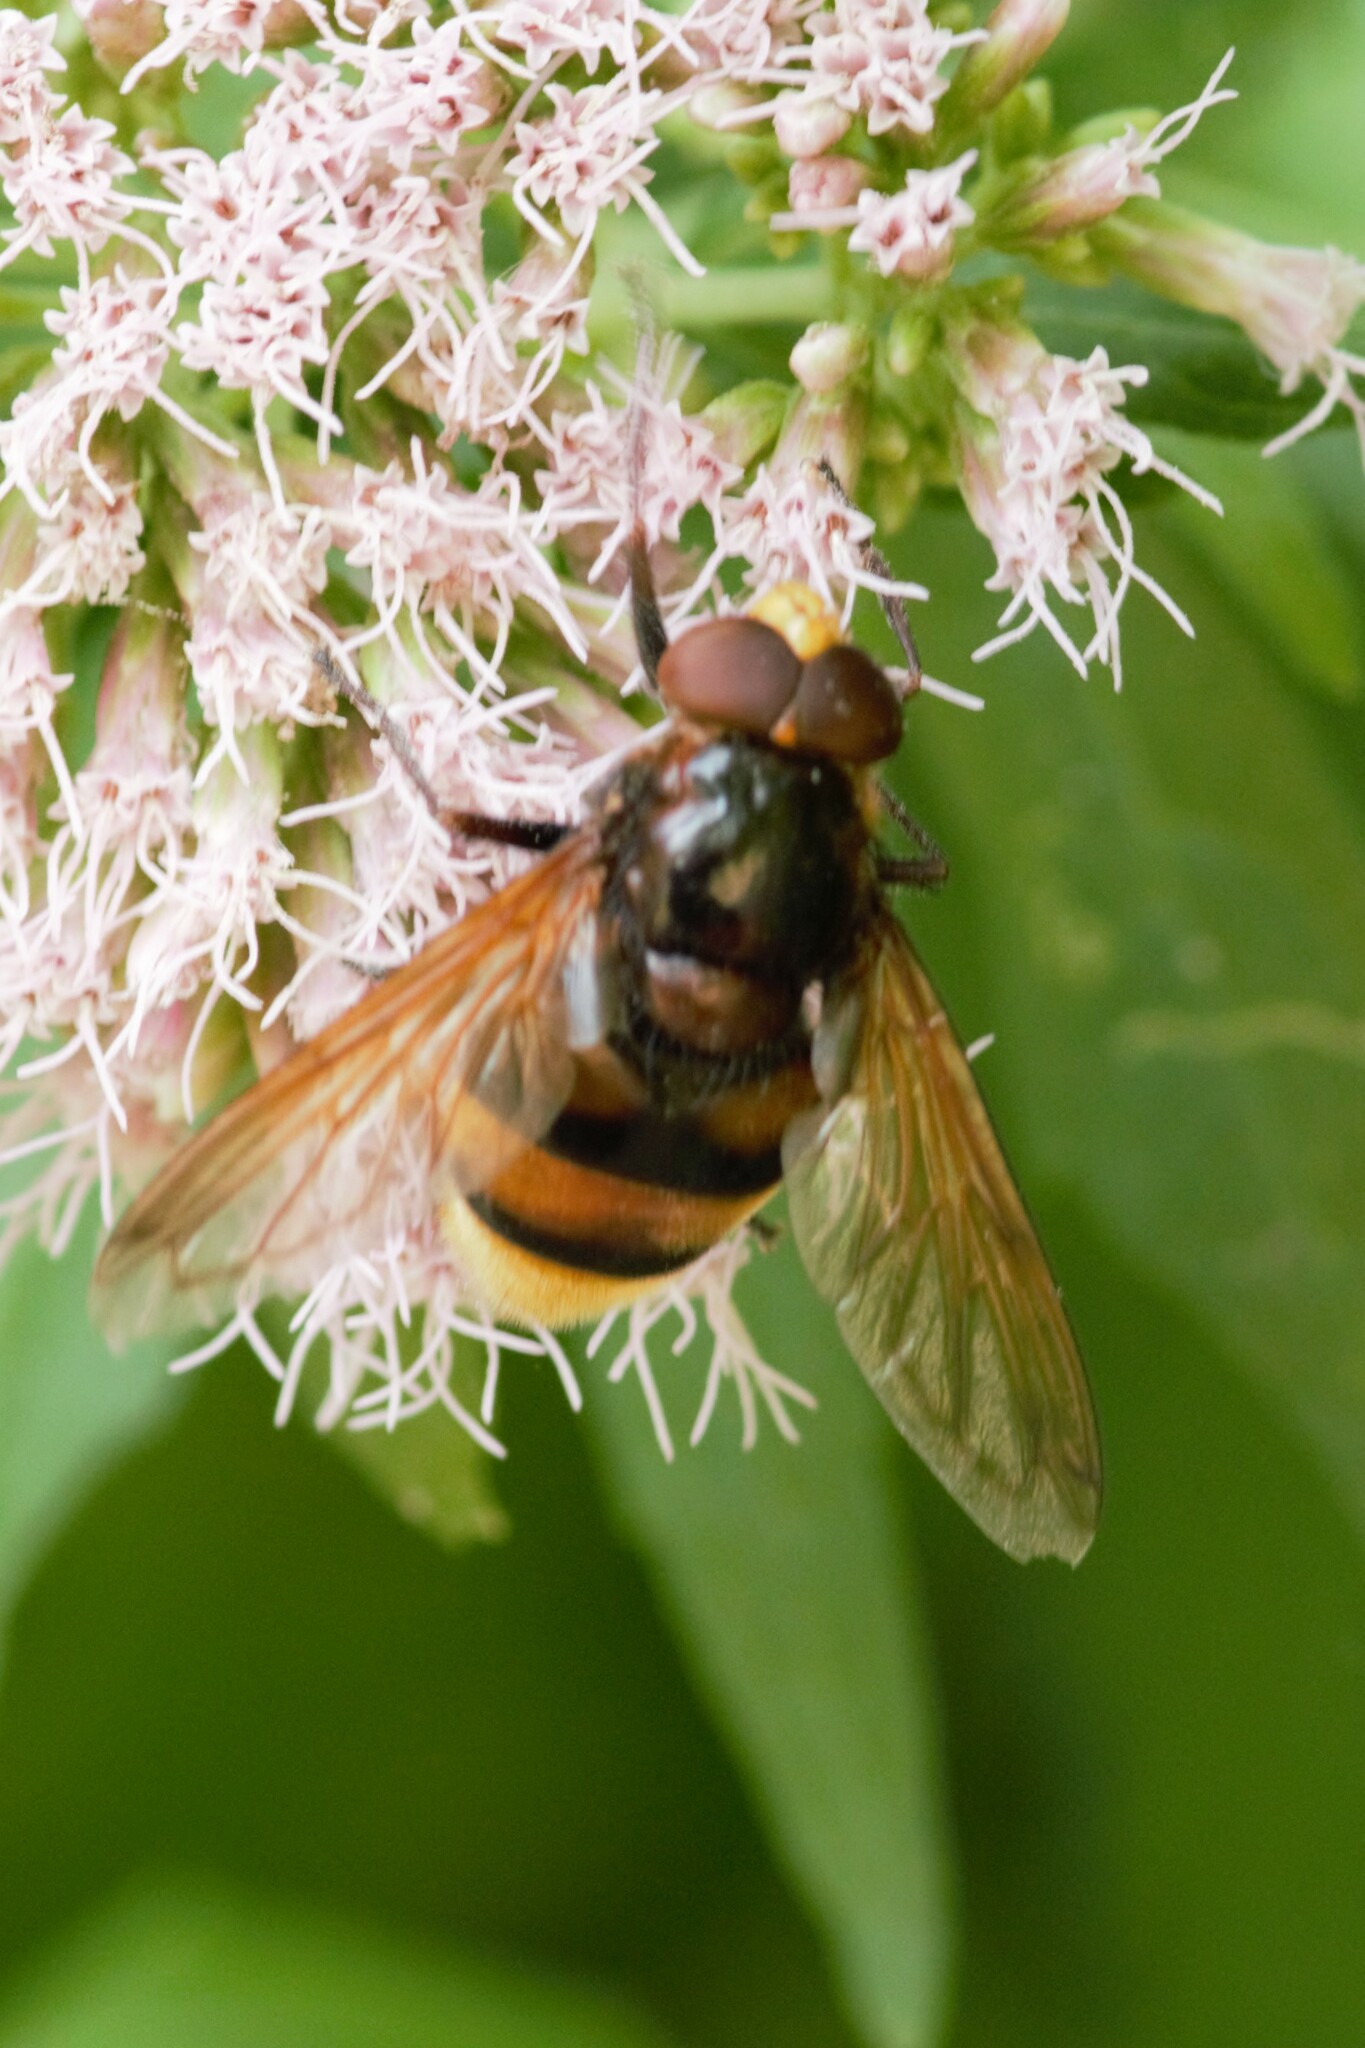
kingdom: Animalia
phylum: Arthropoda
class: Insecta
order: Diptera
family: Syrphidae
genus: Volucella
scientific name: Volucella zonaria
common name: Hornet hoverfly
